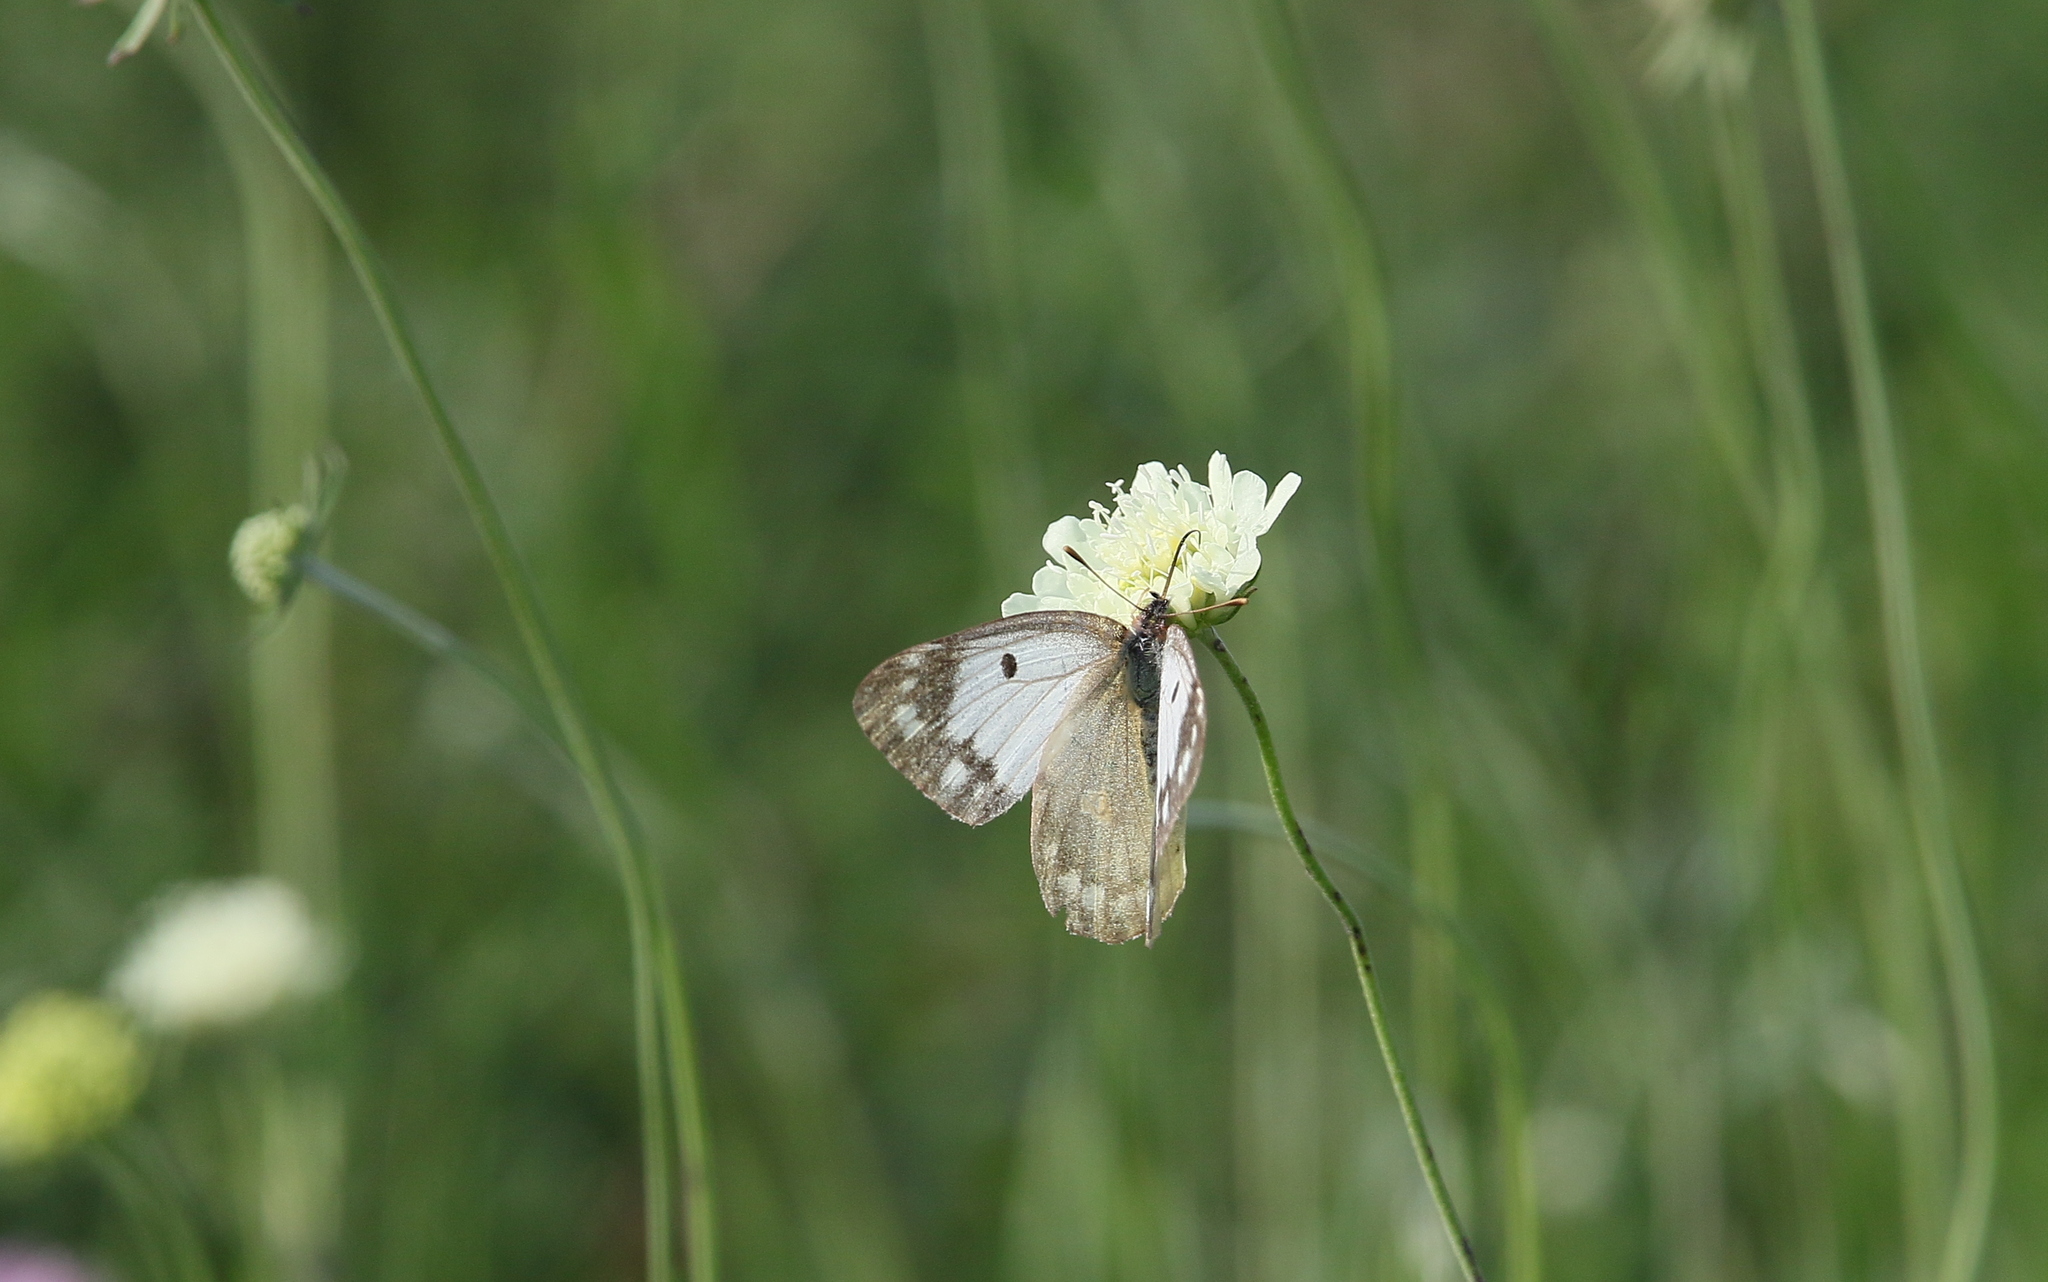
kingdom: Animalia
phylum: Arthropoda
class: Insecta
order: Lepidoptera
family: Pieridae
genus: Colias
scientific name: Colias croceus
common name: Clouded yellow
